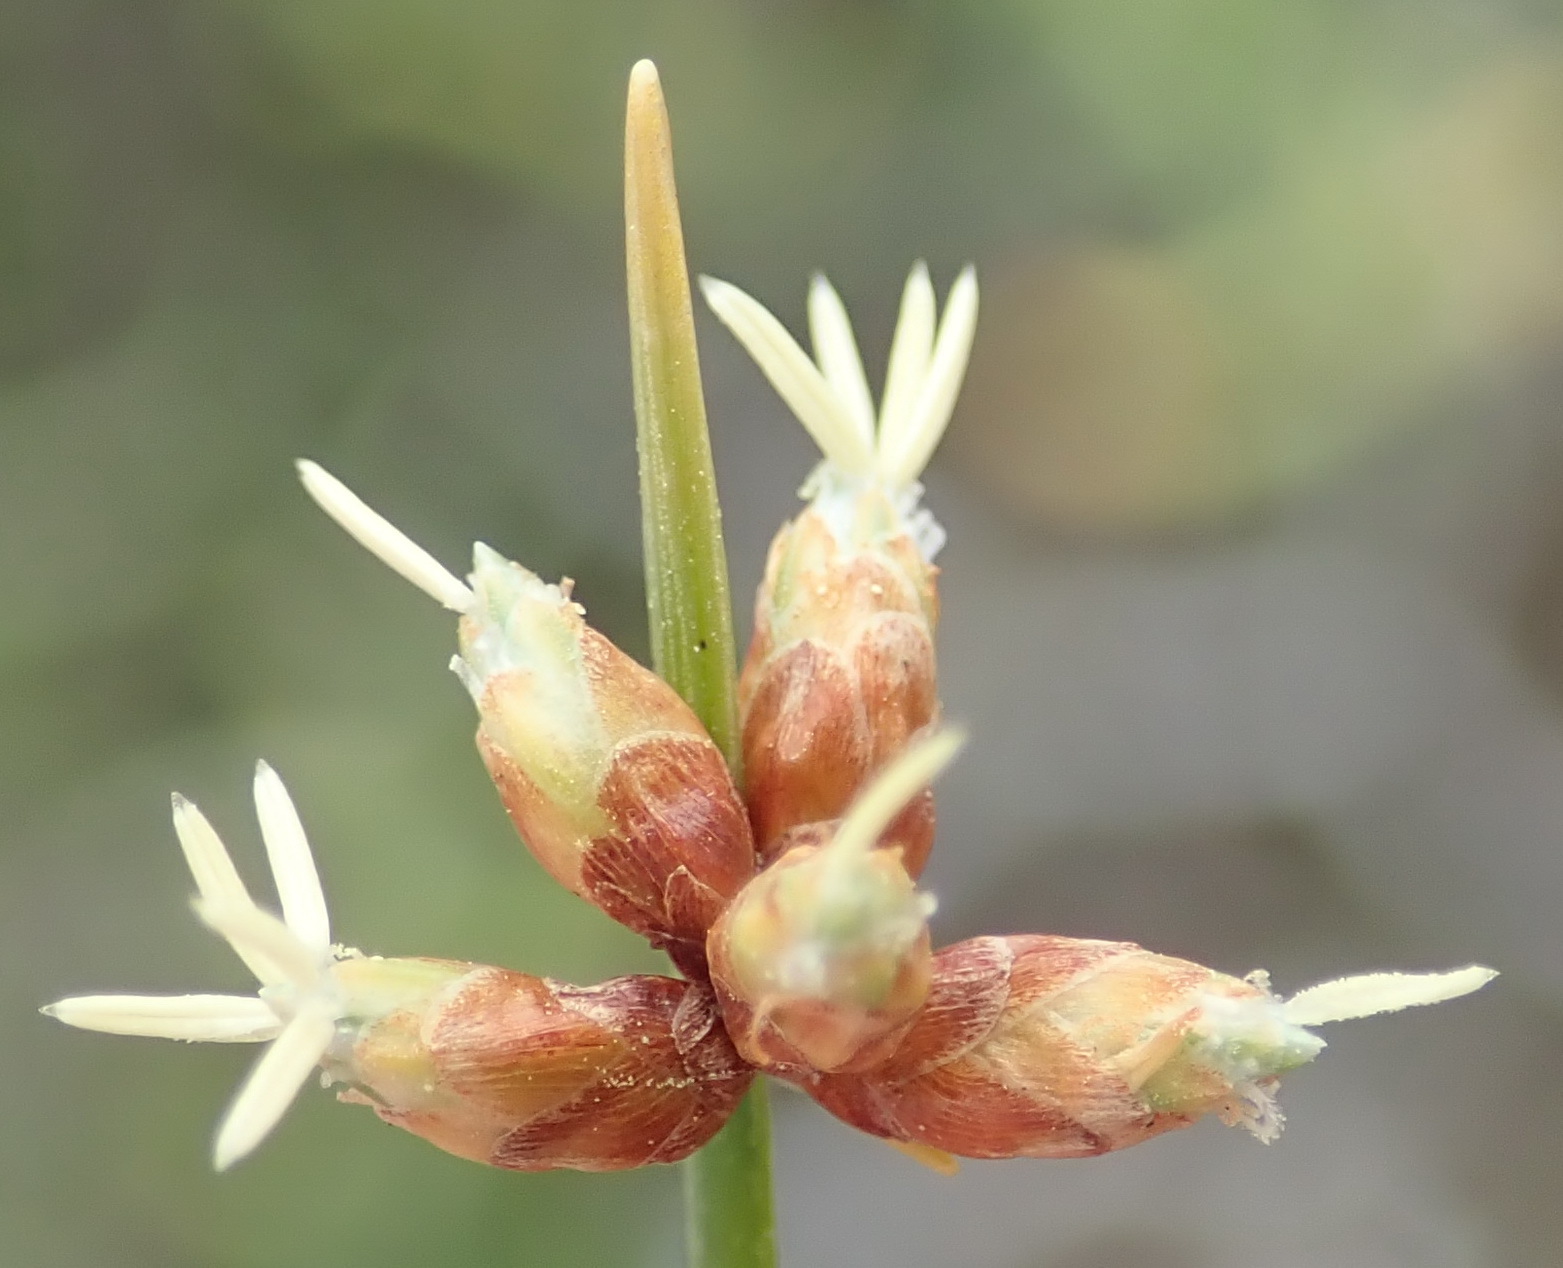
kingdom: Plantae
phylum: Tracheophyta
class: Liliopsida
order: Poales
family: Cyperaceae
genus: Ficinia
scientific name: Ficinia lateralis
